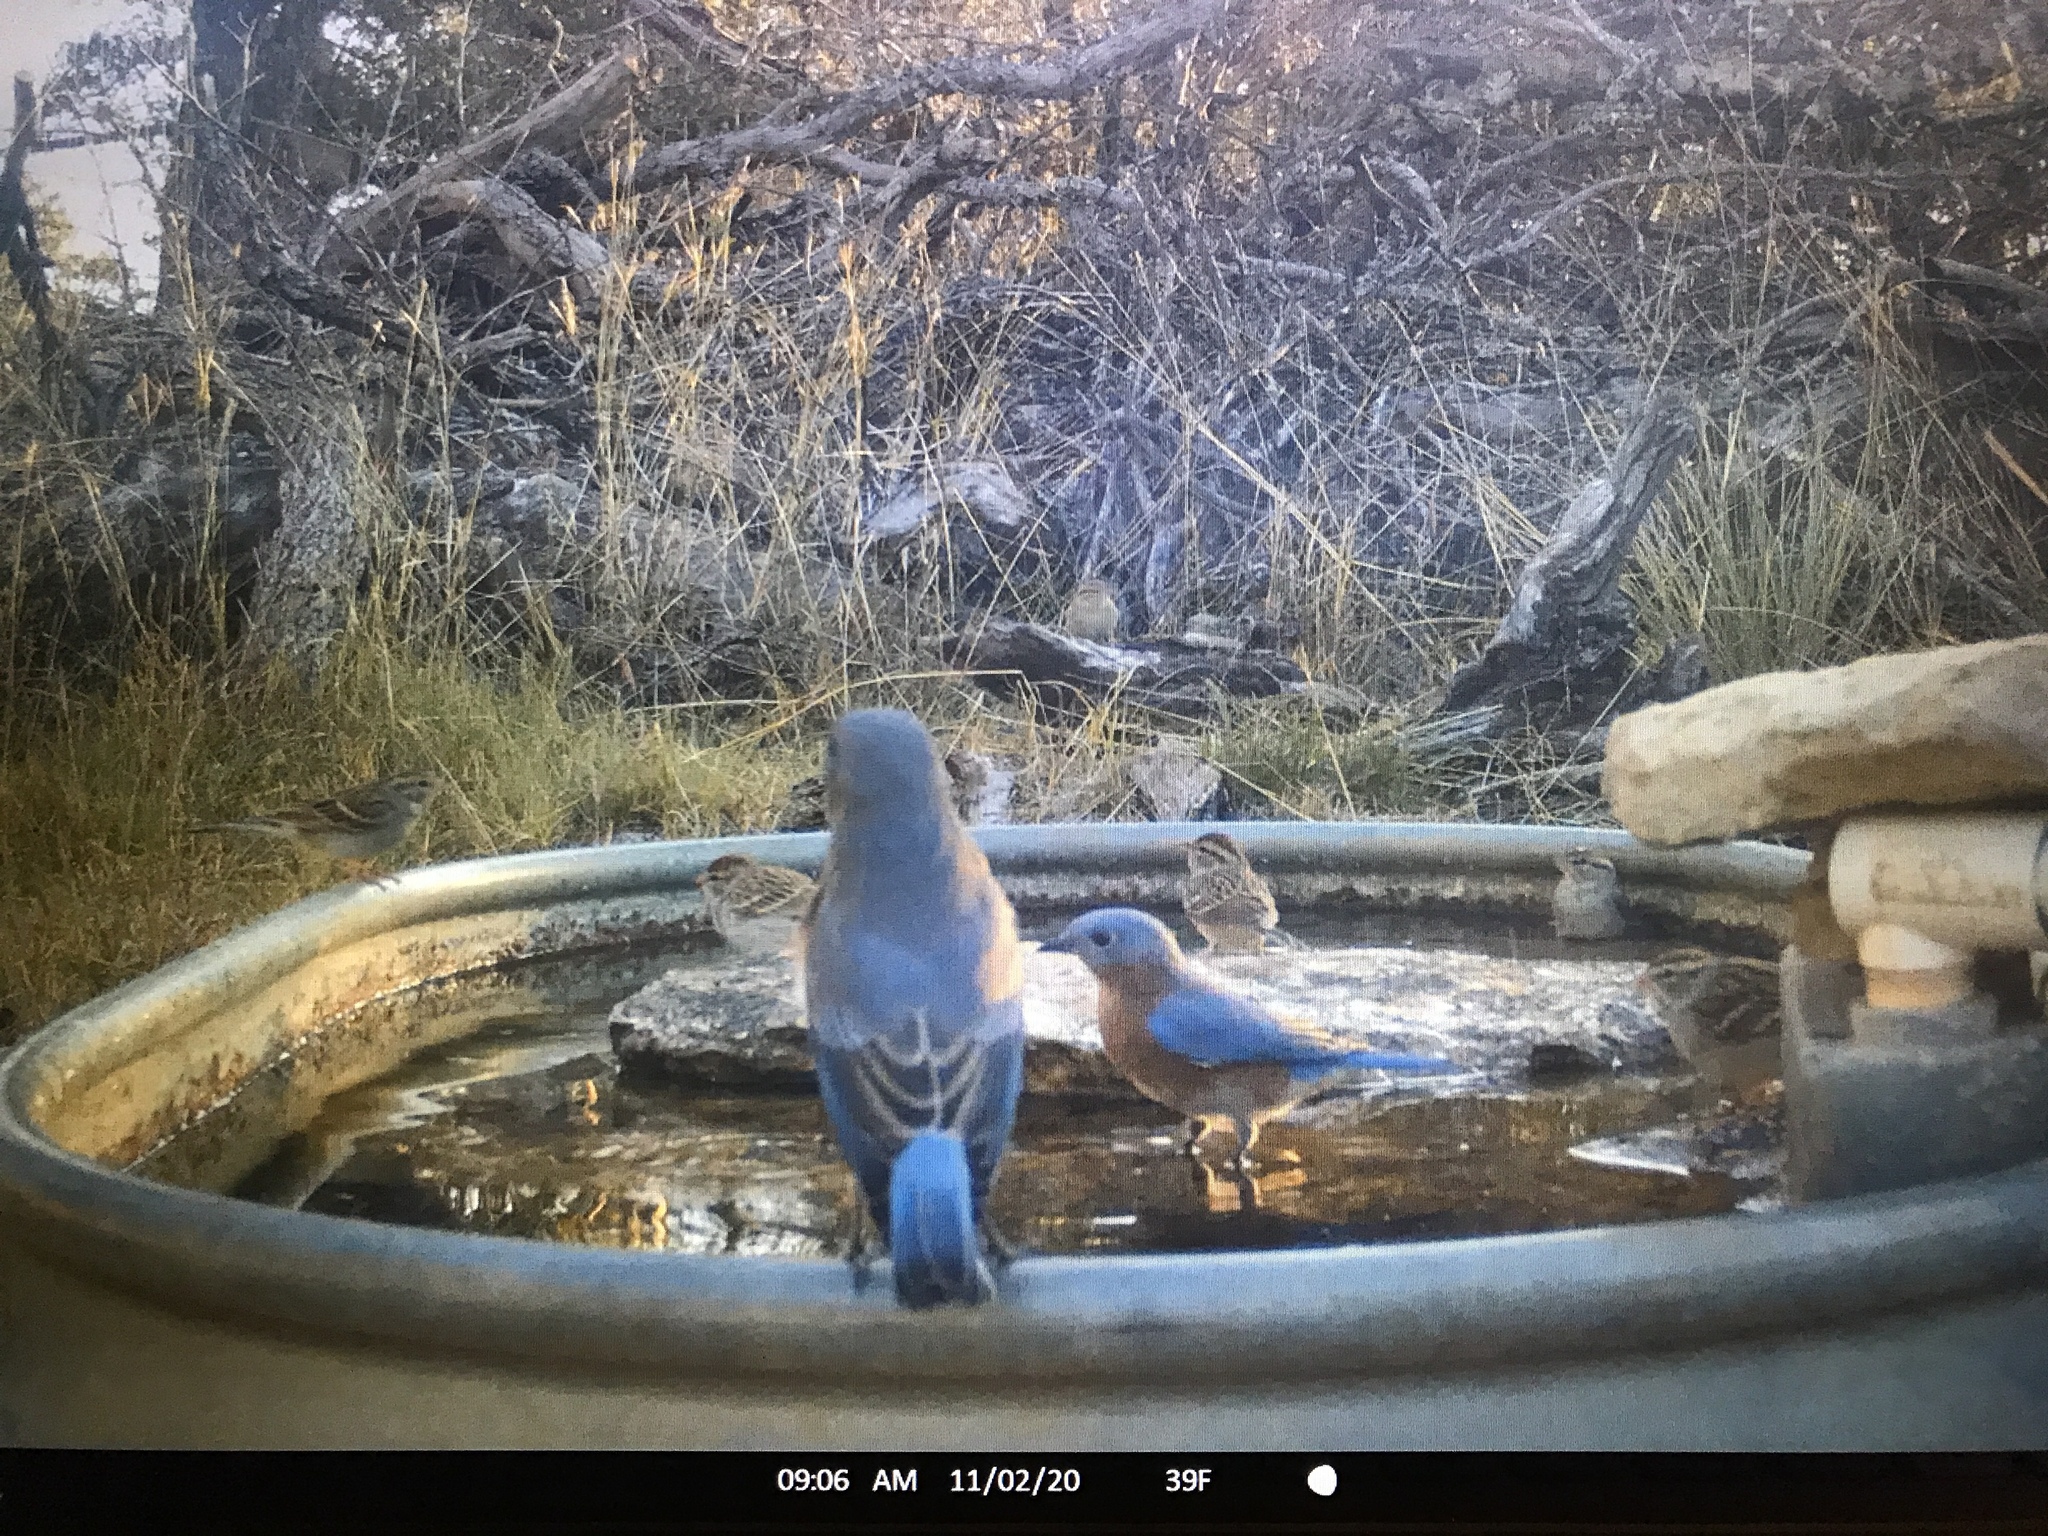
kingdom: Animalia
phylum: Chordata
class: Aves
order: Passeriformes
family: Turdidae
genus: Sialia
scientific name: Sialia sialis
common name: Eastern bluebird
